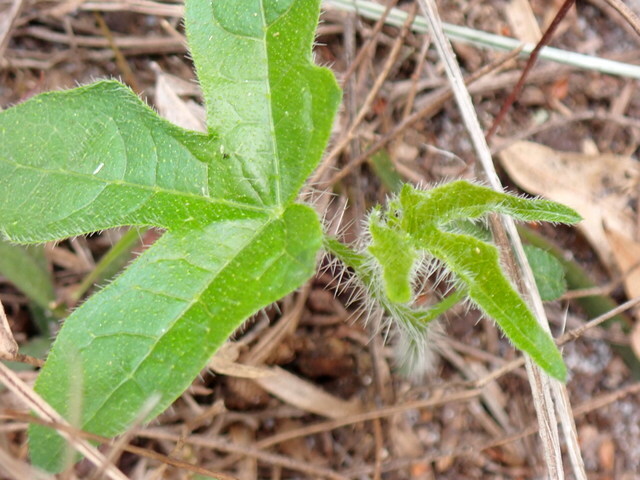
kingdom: Plantae
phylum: Tracheophyta
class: Magnoliopsida
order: Malpighiales
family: Euphorbiaceae
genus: Cnidoscolus
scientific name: Cnidoscolus stimulosus
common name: Bull-nettle
